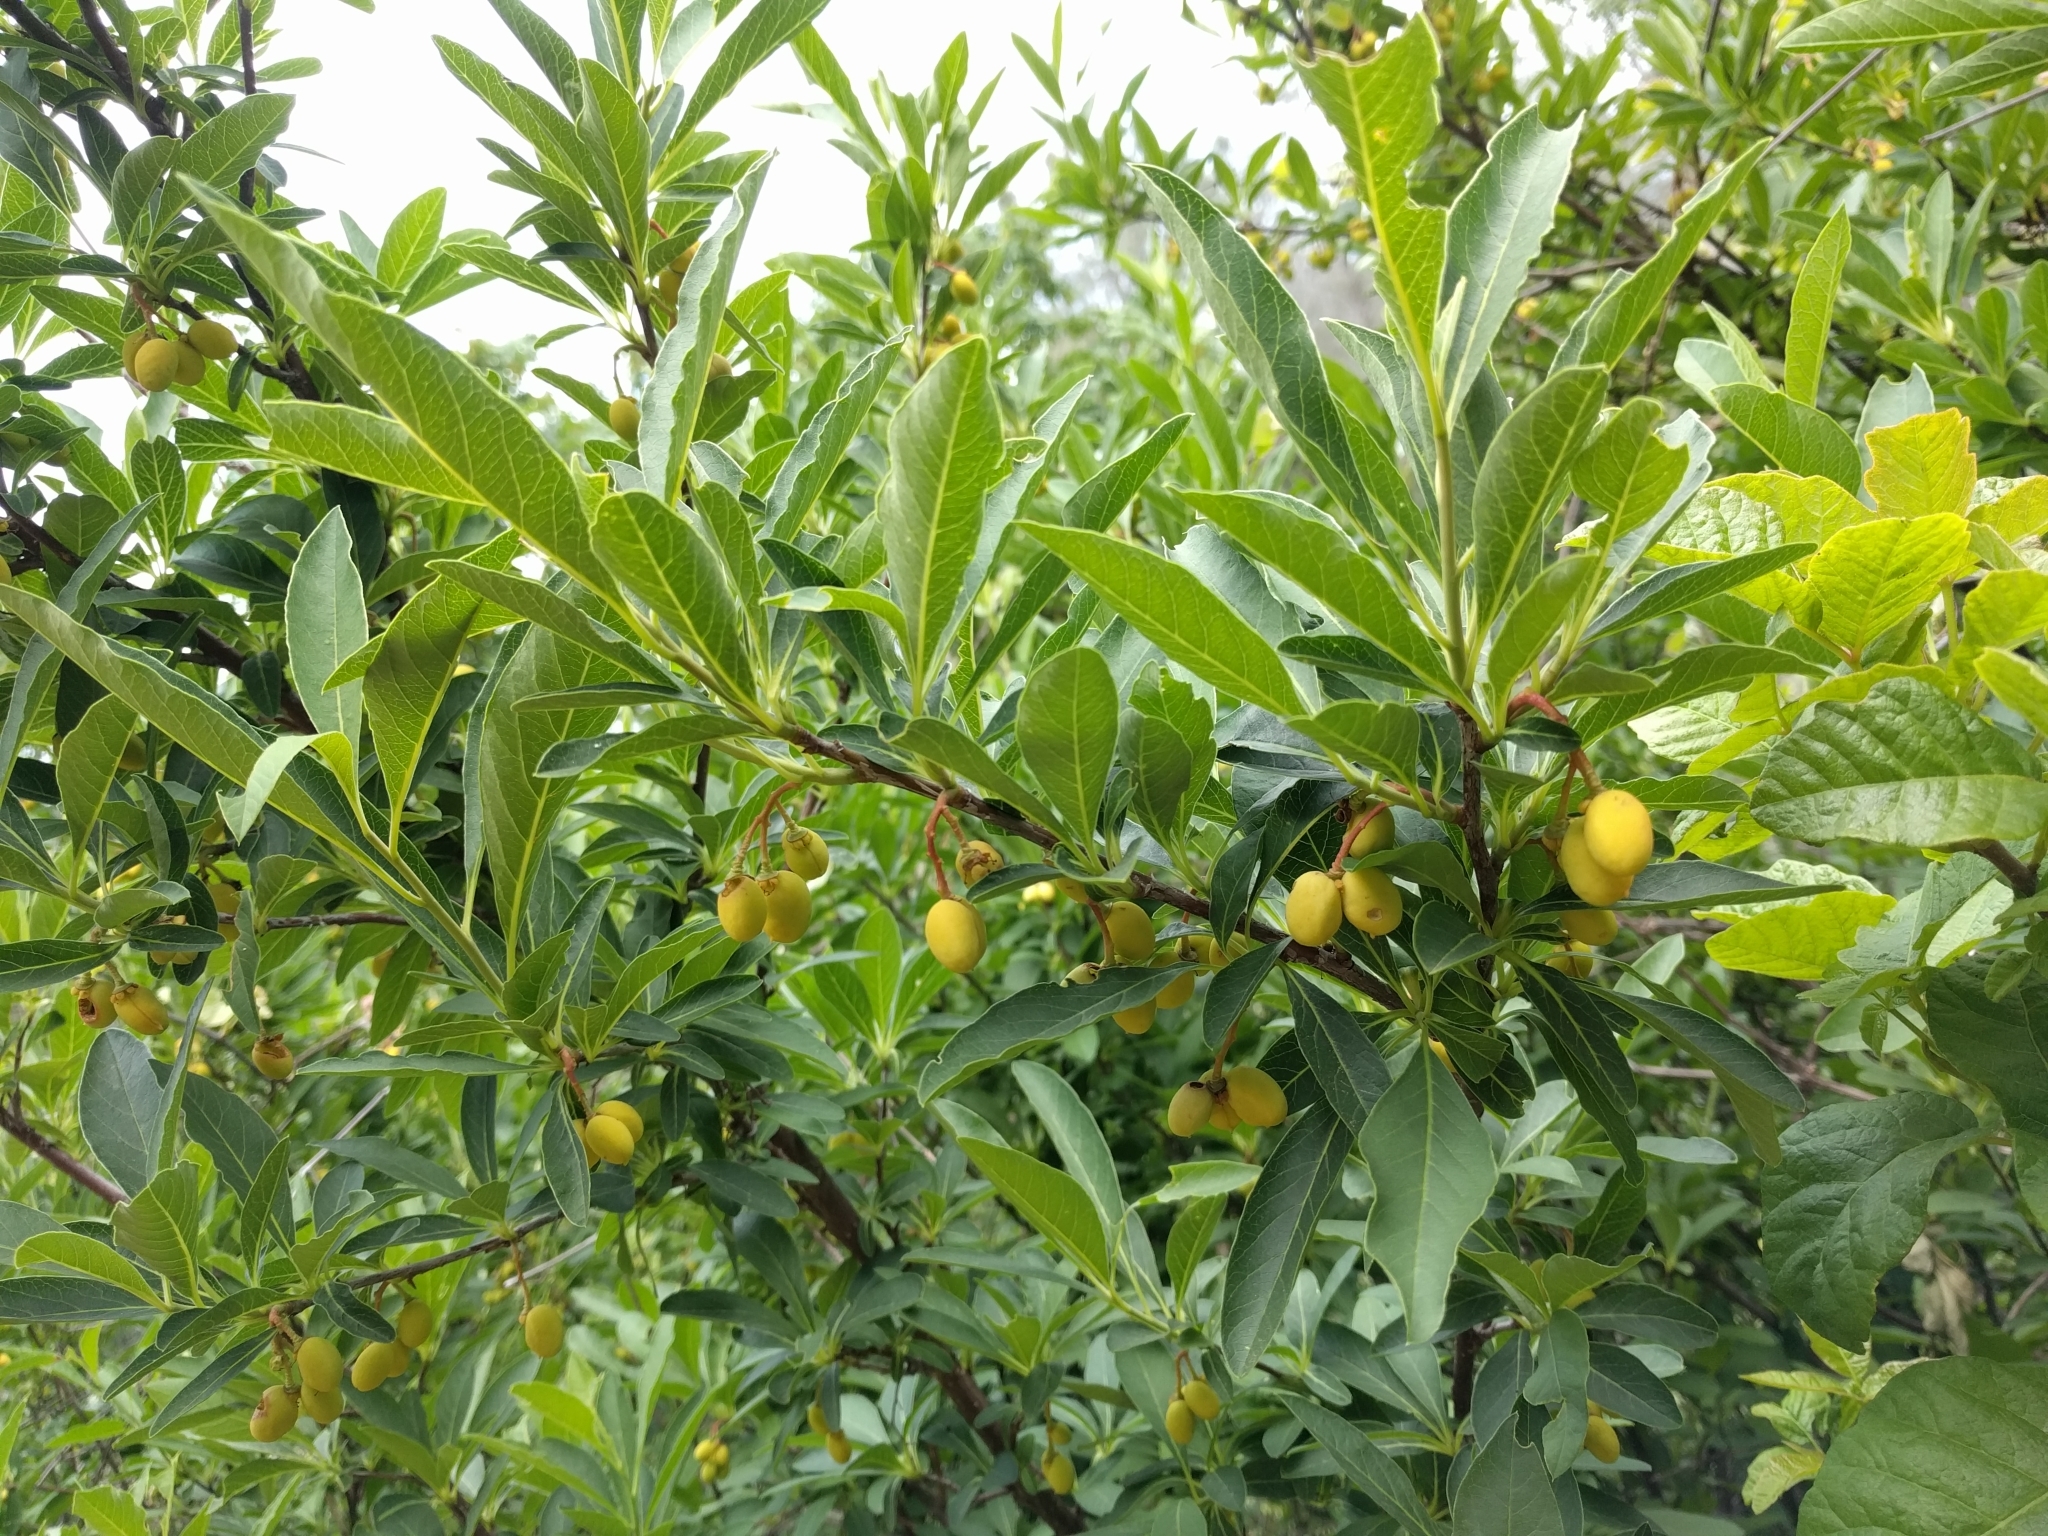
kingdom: Plantae
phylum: Tracheophyta
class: Magnoliopsida
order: Rosales
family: Rosaceae
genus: Oemleria
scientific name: Oemleria cerasiformis
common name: Osoberry
